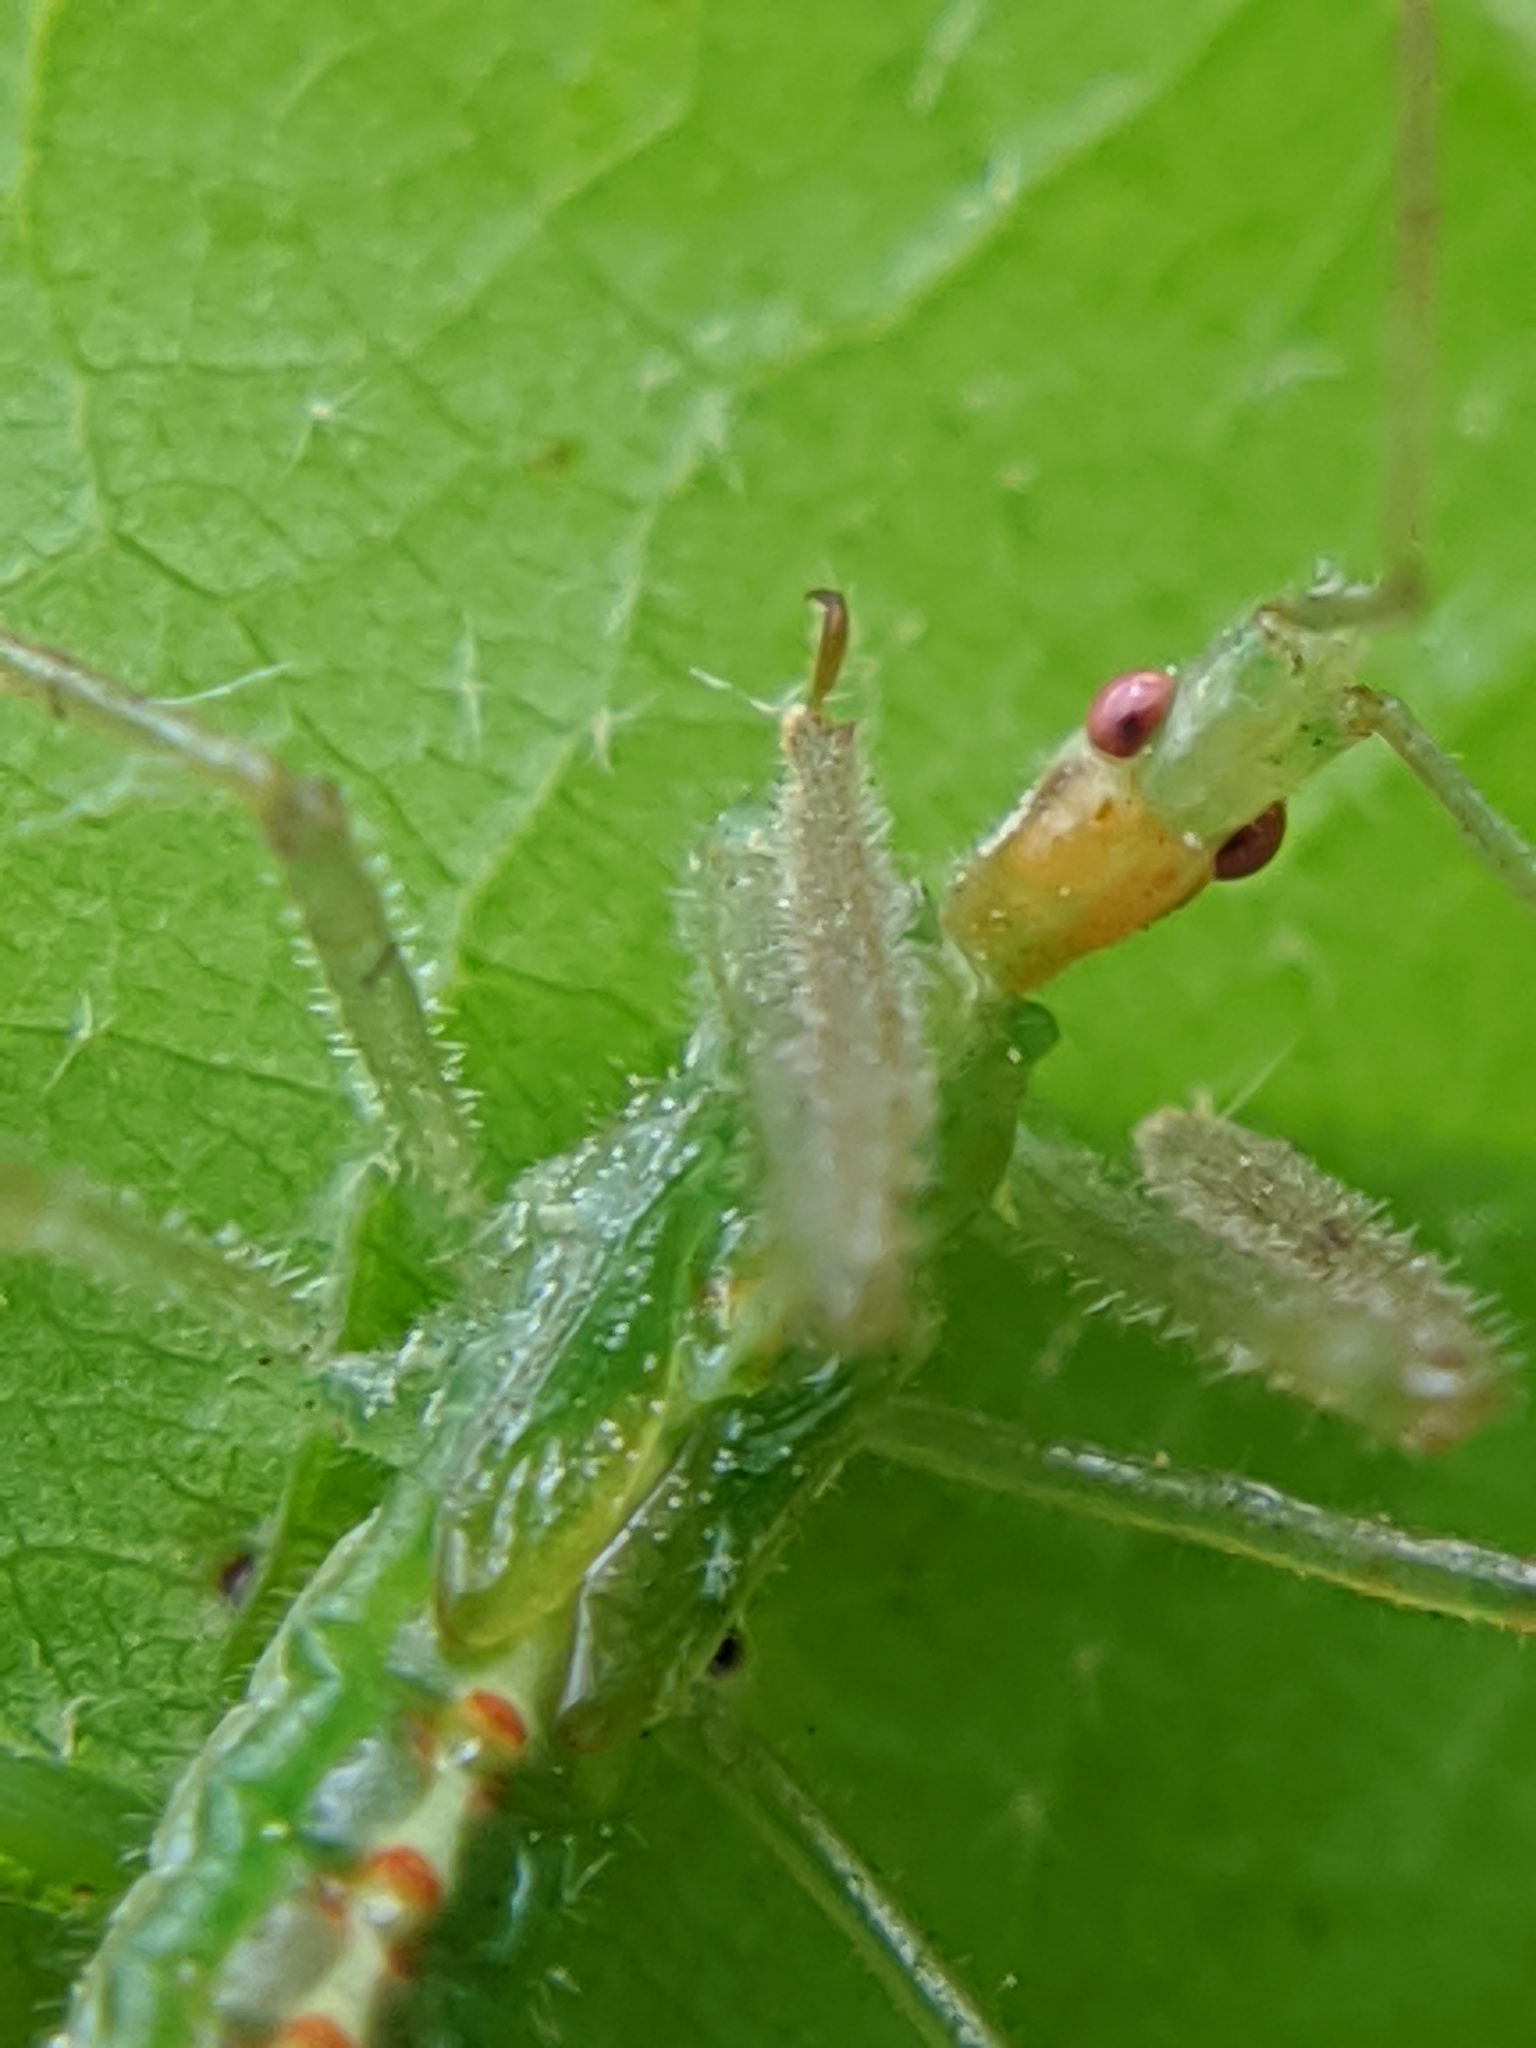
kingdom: Animalia
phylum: Arthropoda
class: Insecta
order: Hemiptera
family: Reduviidae
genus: Zelus
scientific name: Zelus luridus
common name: Pale green assassin bug
